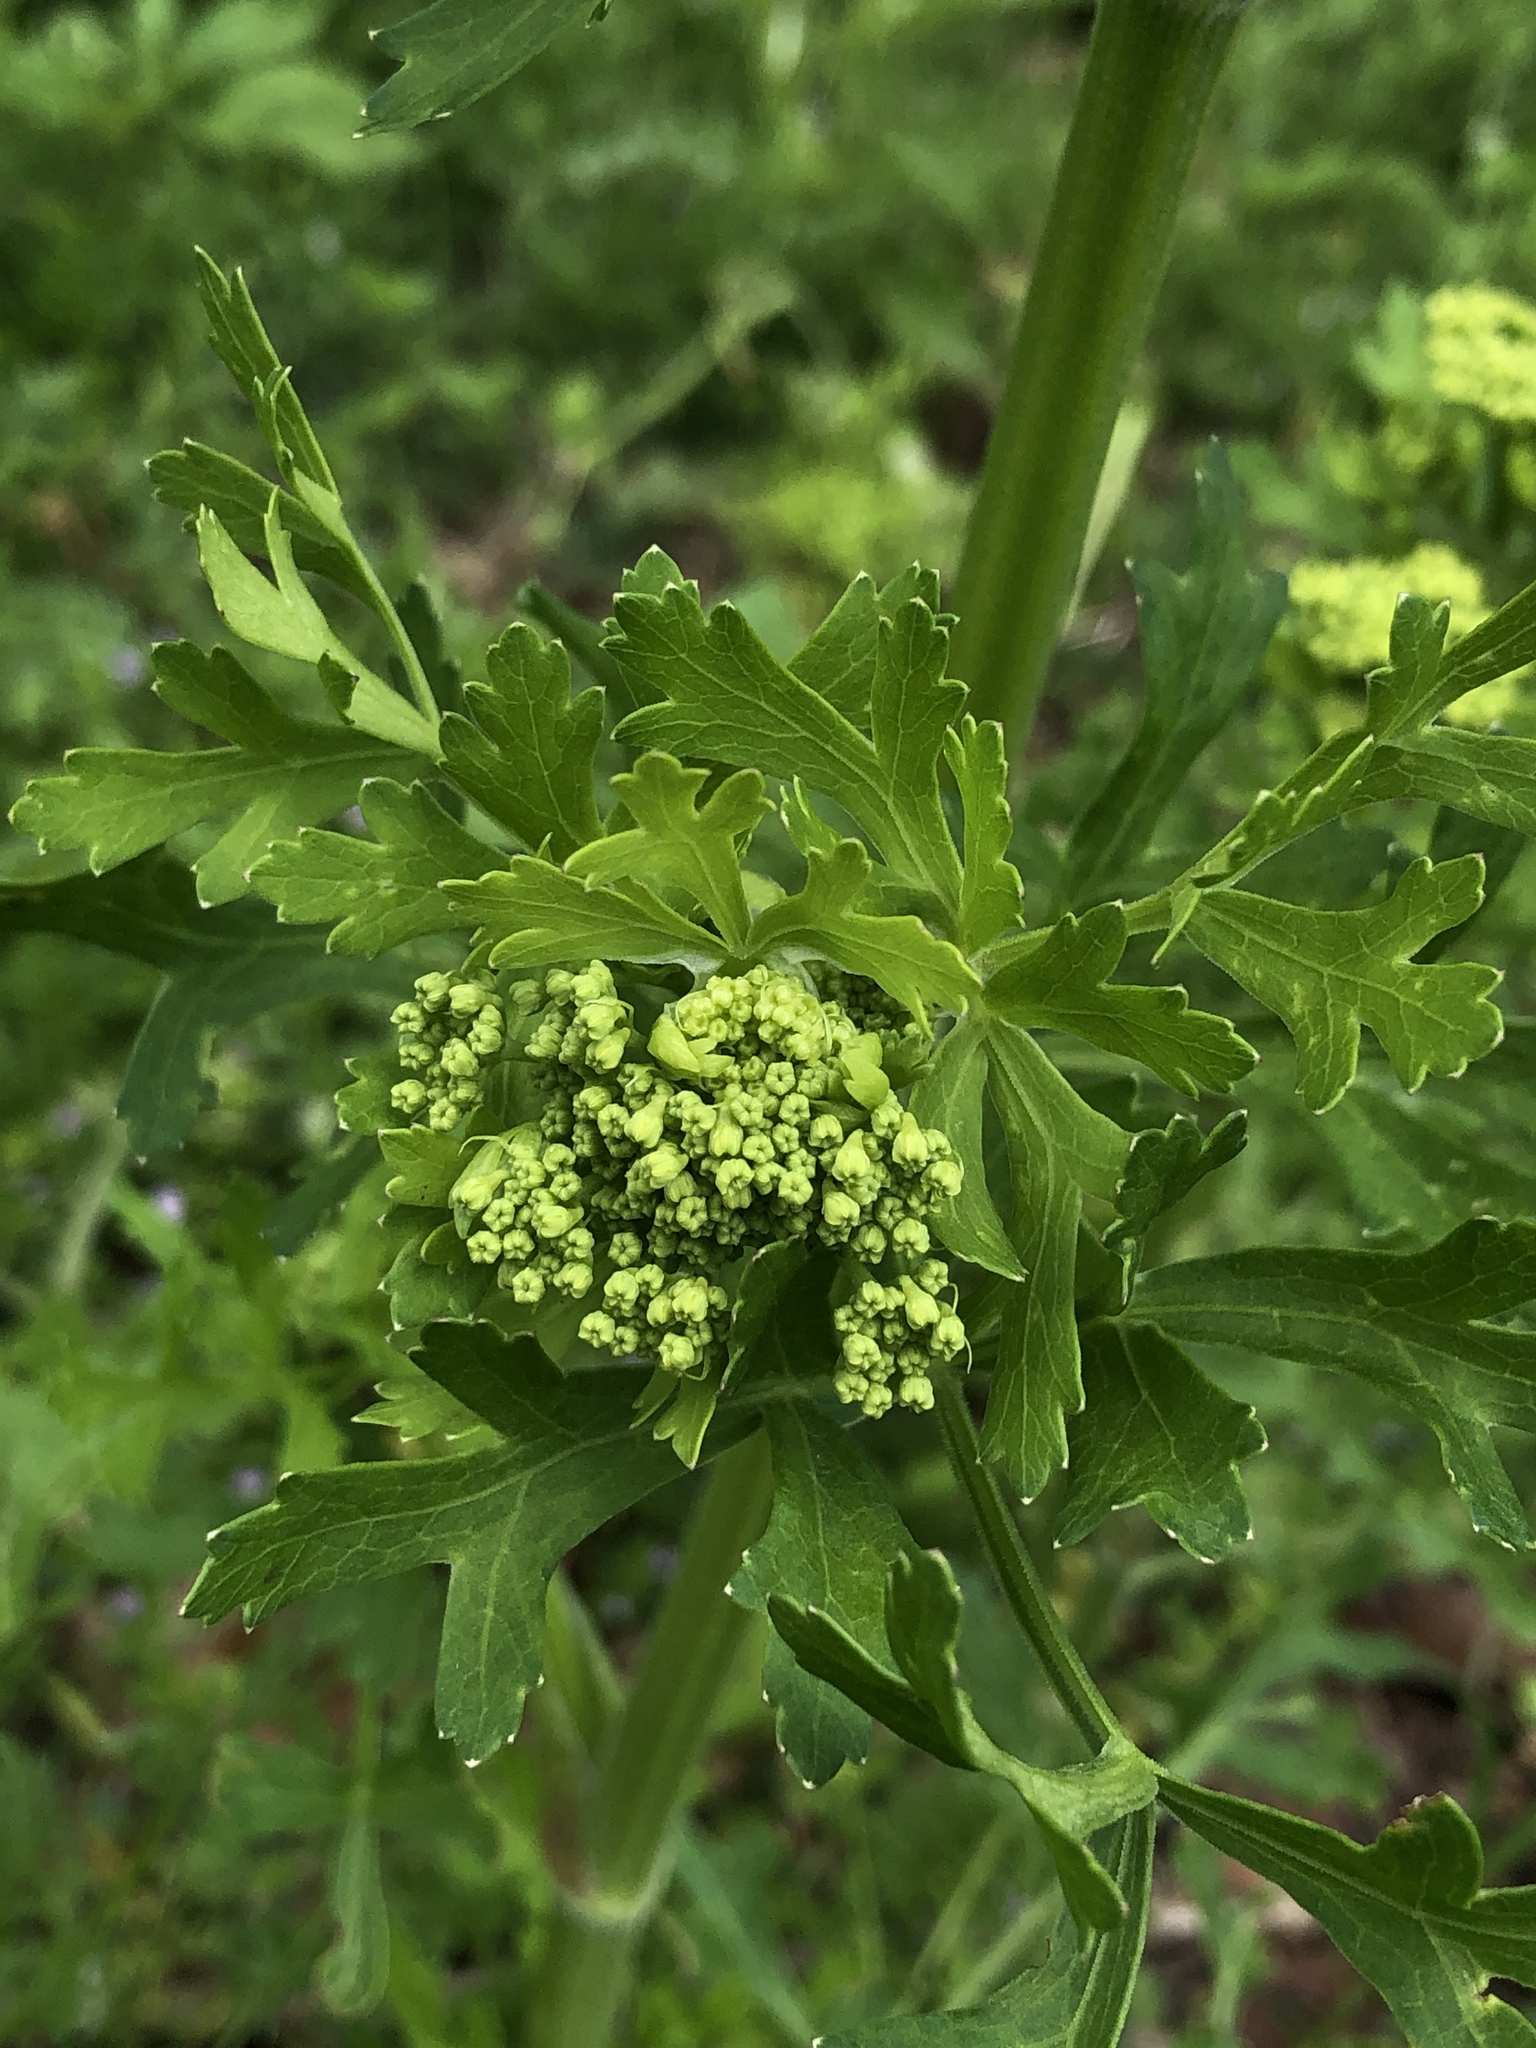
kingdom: Plantae
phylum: Tracheophyta
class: Magnoliopsida
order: Apiales
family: Apiaceae
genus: Polytaenia
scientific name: Polytaenia texana
